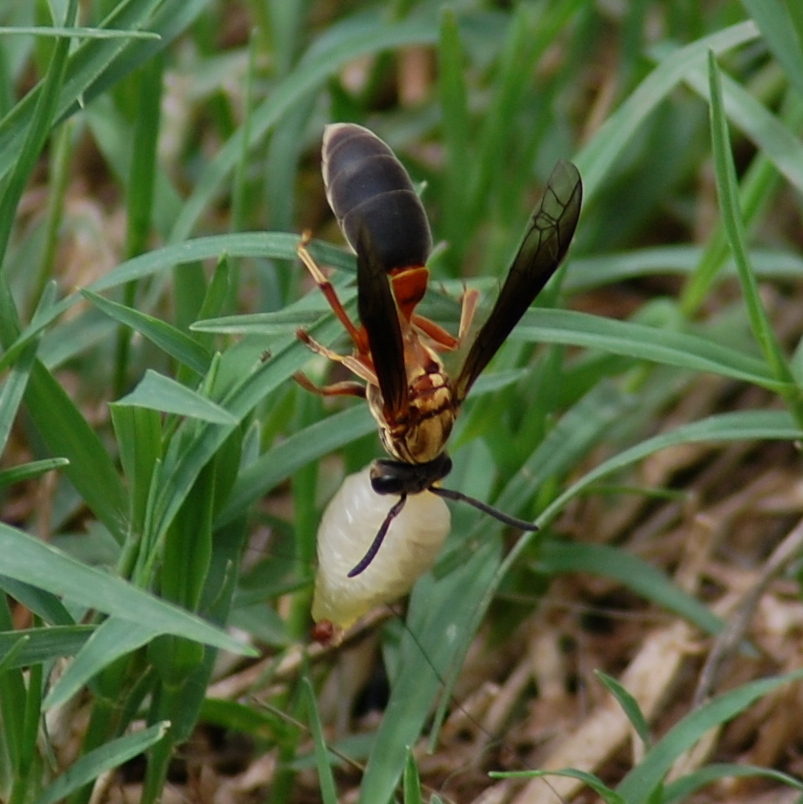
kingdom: Animalia
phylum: Arthropoda
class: Insecta
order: Hymenoptera
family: Eumenidae
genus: Polybia
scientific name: Polybia sericea
